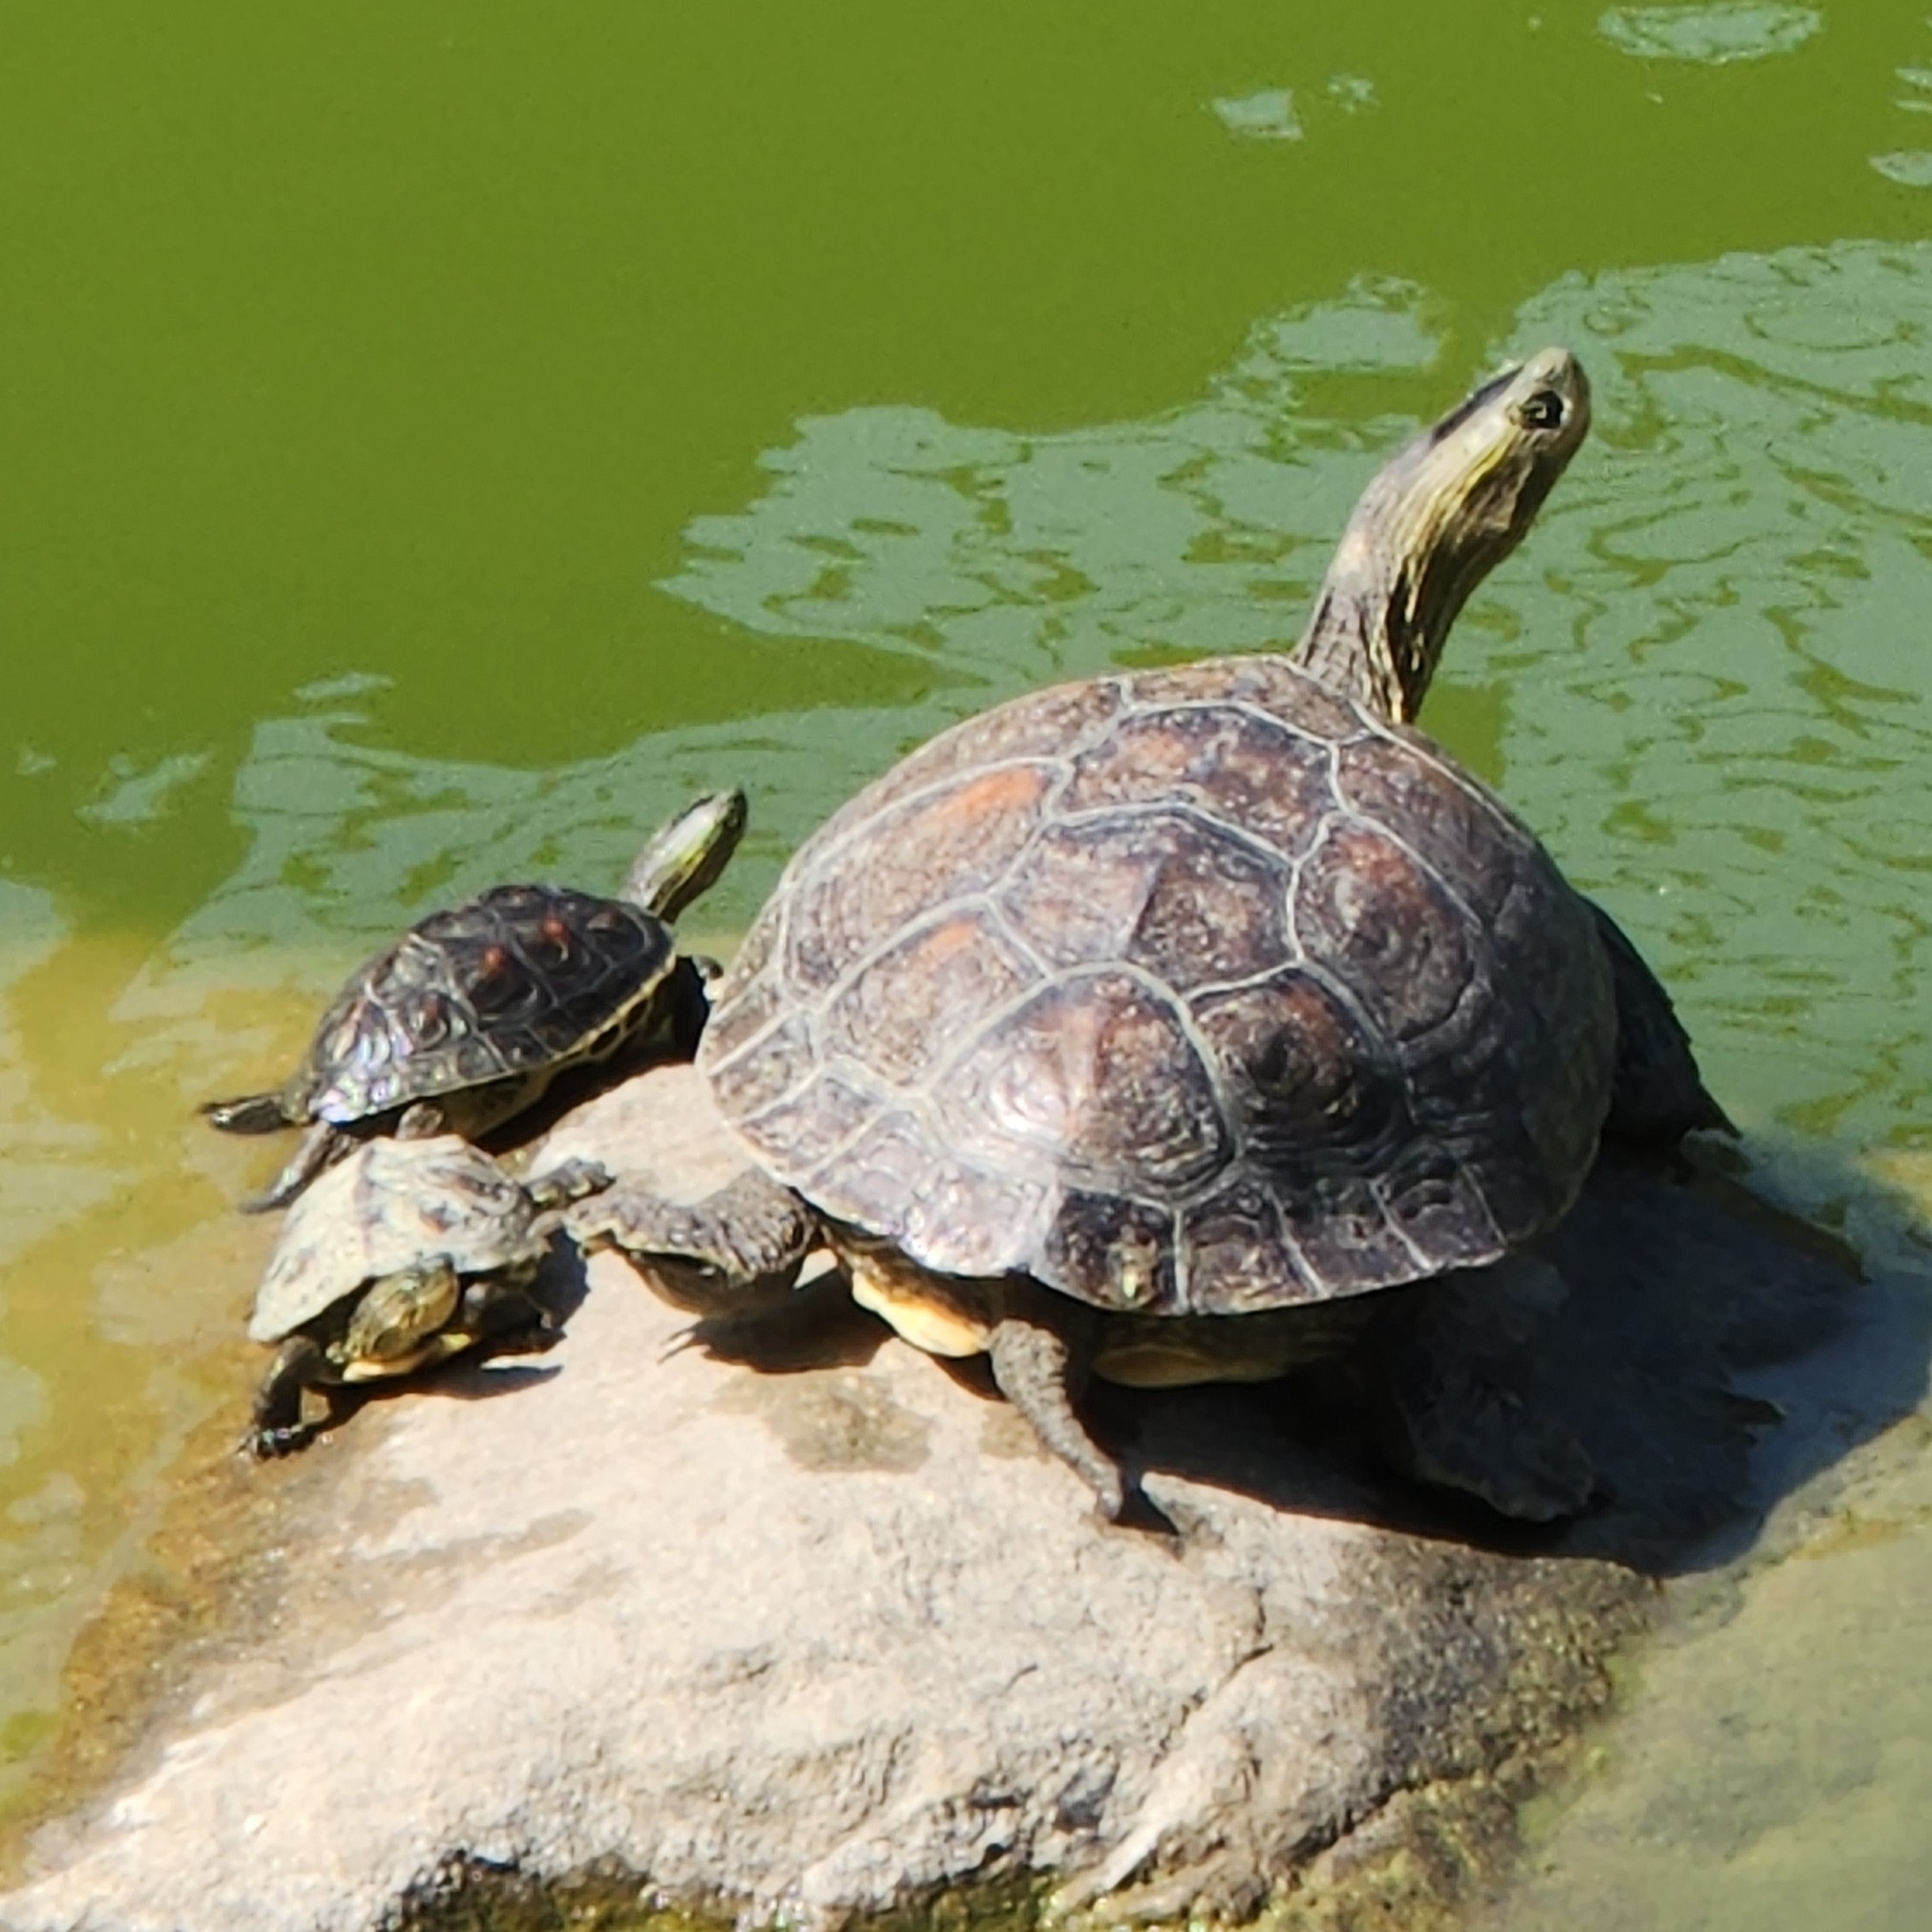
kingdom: Animalia
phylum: Chordata
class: Testudines
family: Geoemydidae
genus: Mauremys
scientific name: Mauremys sinensis
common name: Chinese stripe-necked turtle
